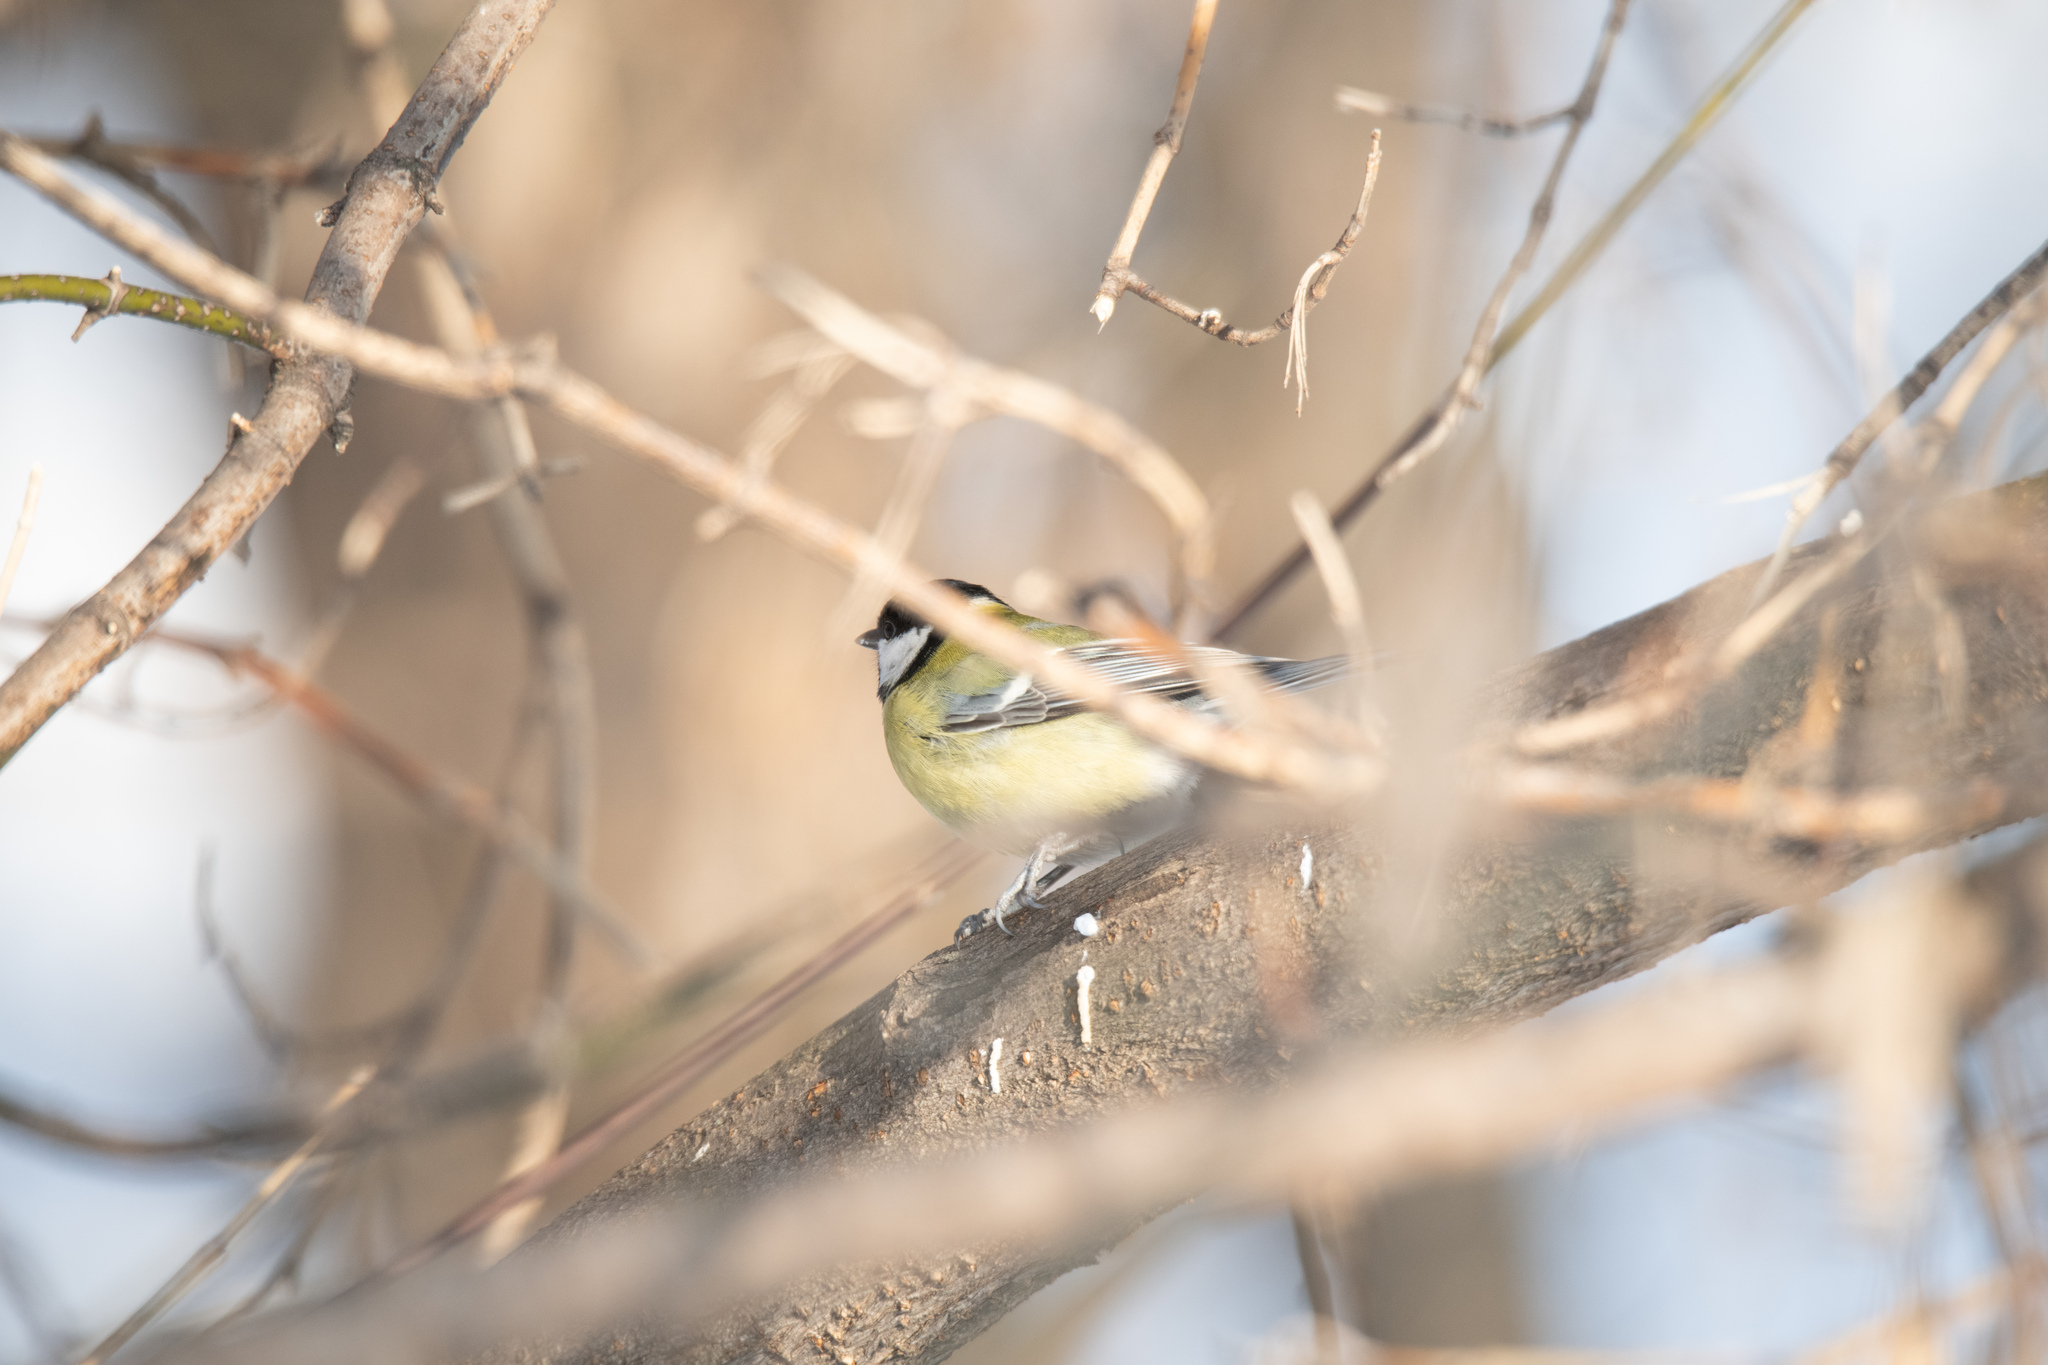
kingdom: Animalia
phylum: Chordata
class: Aves
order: Passeriformes
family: Paridae
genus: Parus
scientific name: Parus major
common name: Great tit
